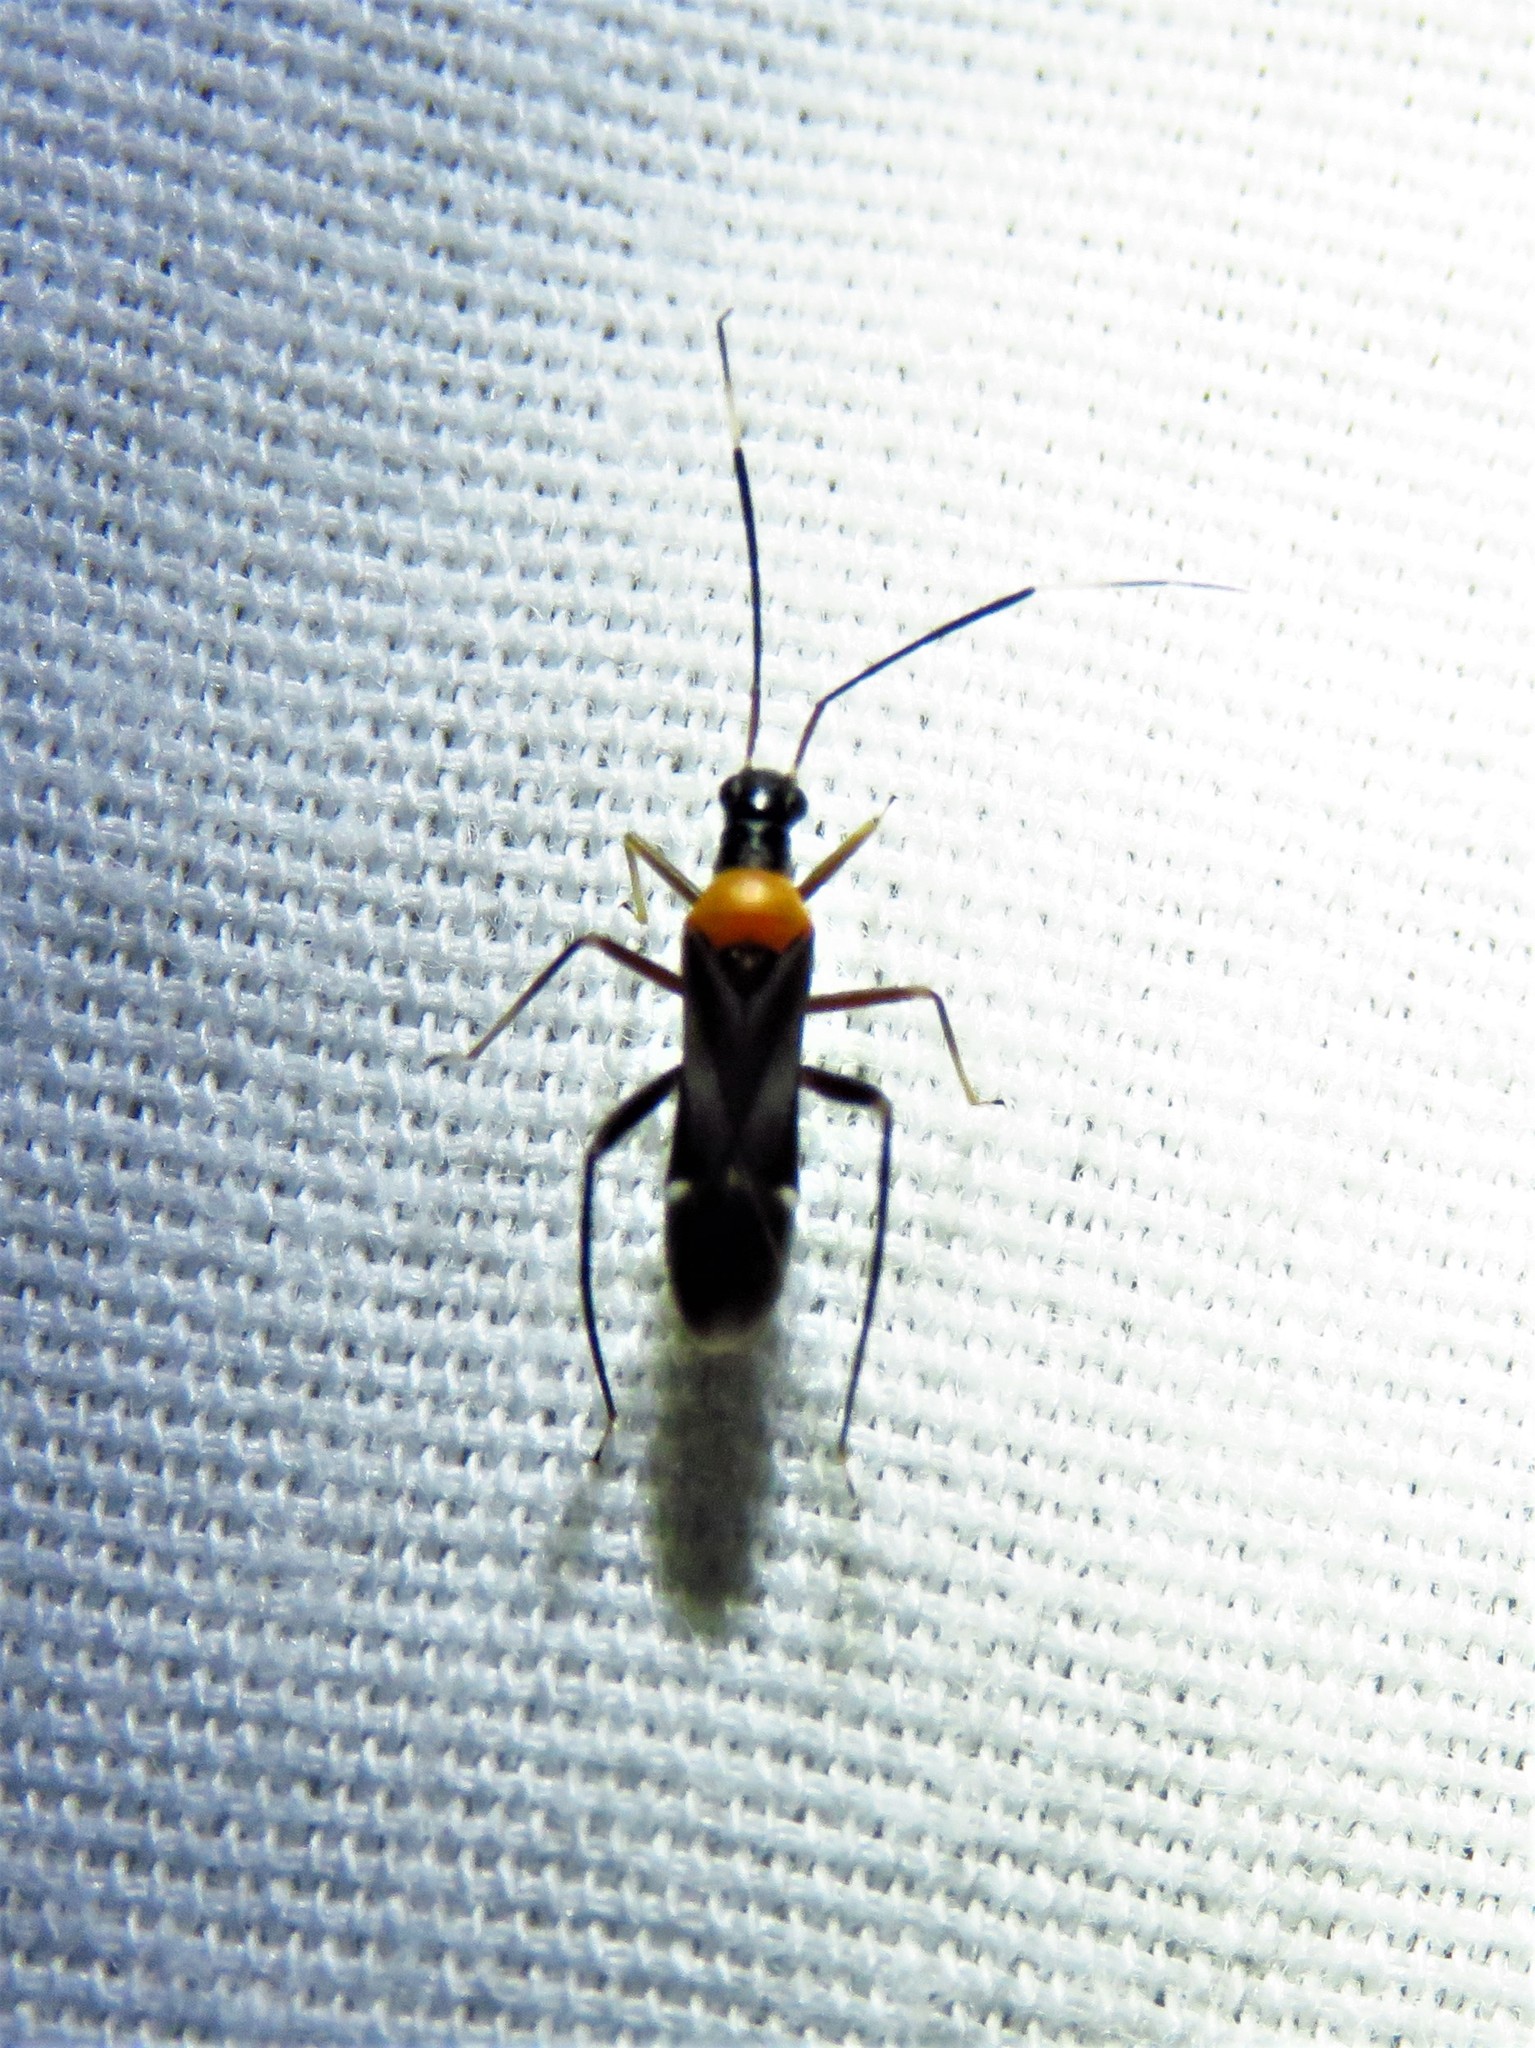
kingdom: Animalia
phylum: Arthropoda
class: Insecta
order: Hemiptera
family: Miridae
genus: Pseudoxenetus
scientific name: Pseudoxenetus regalis
